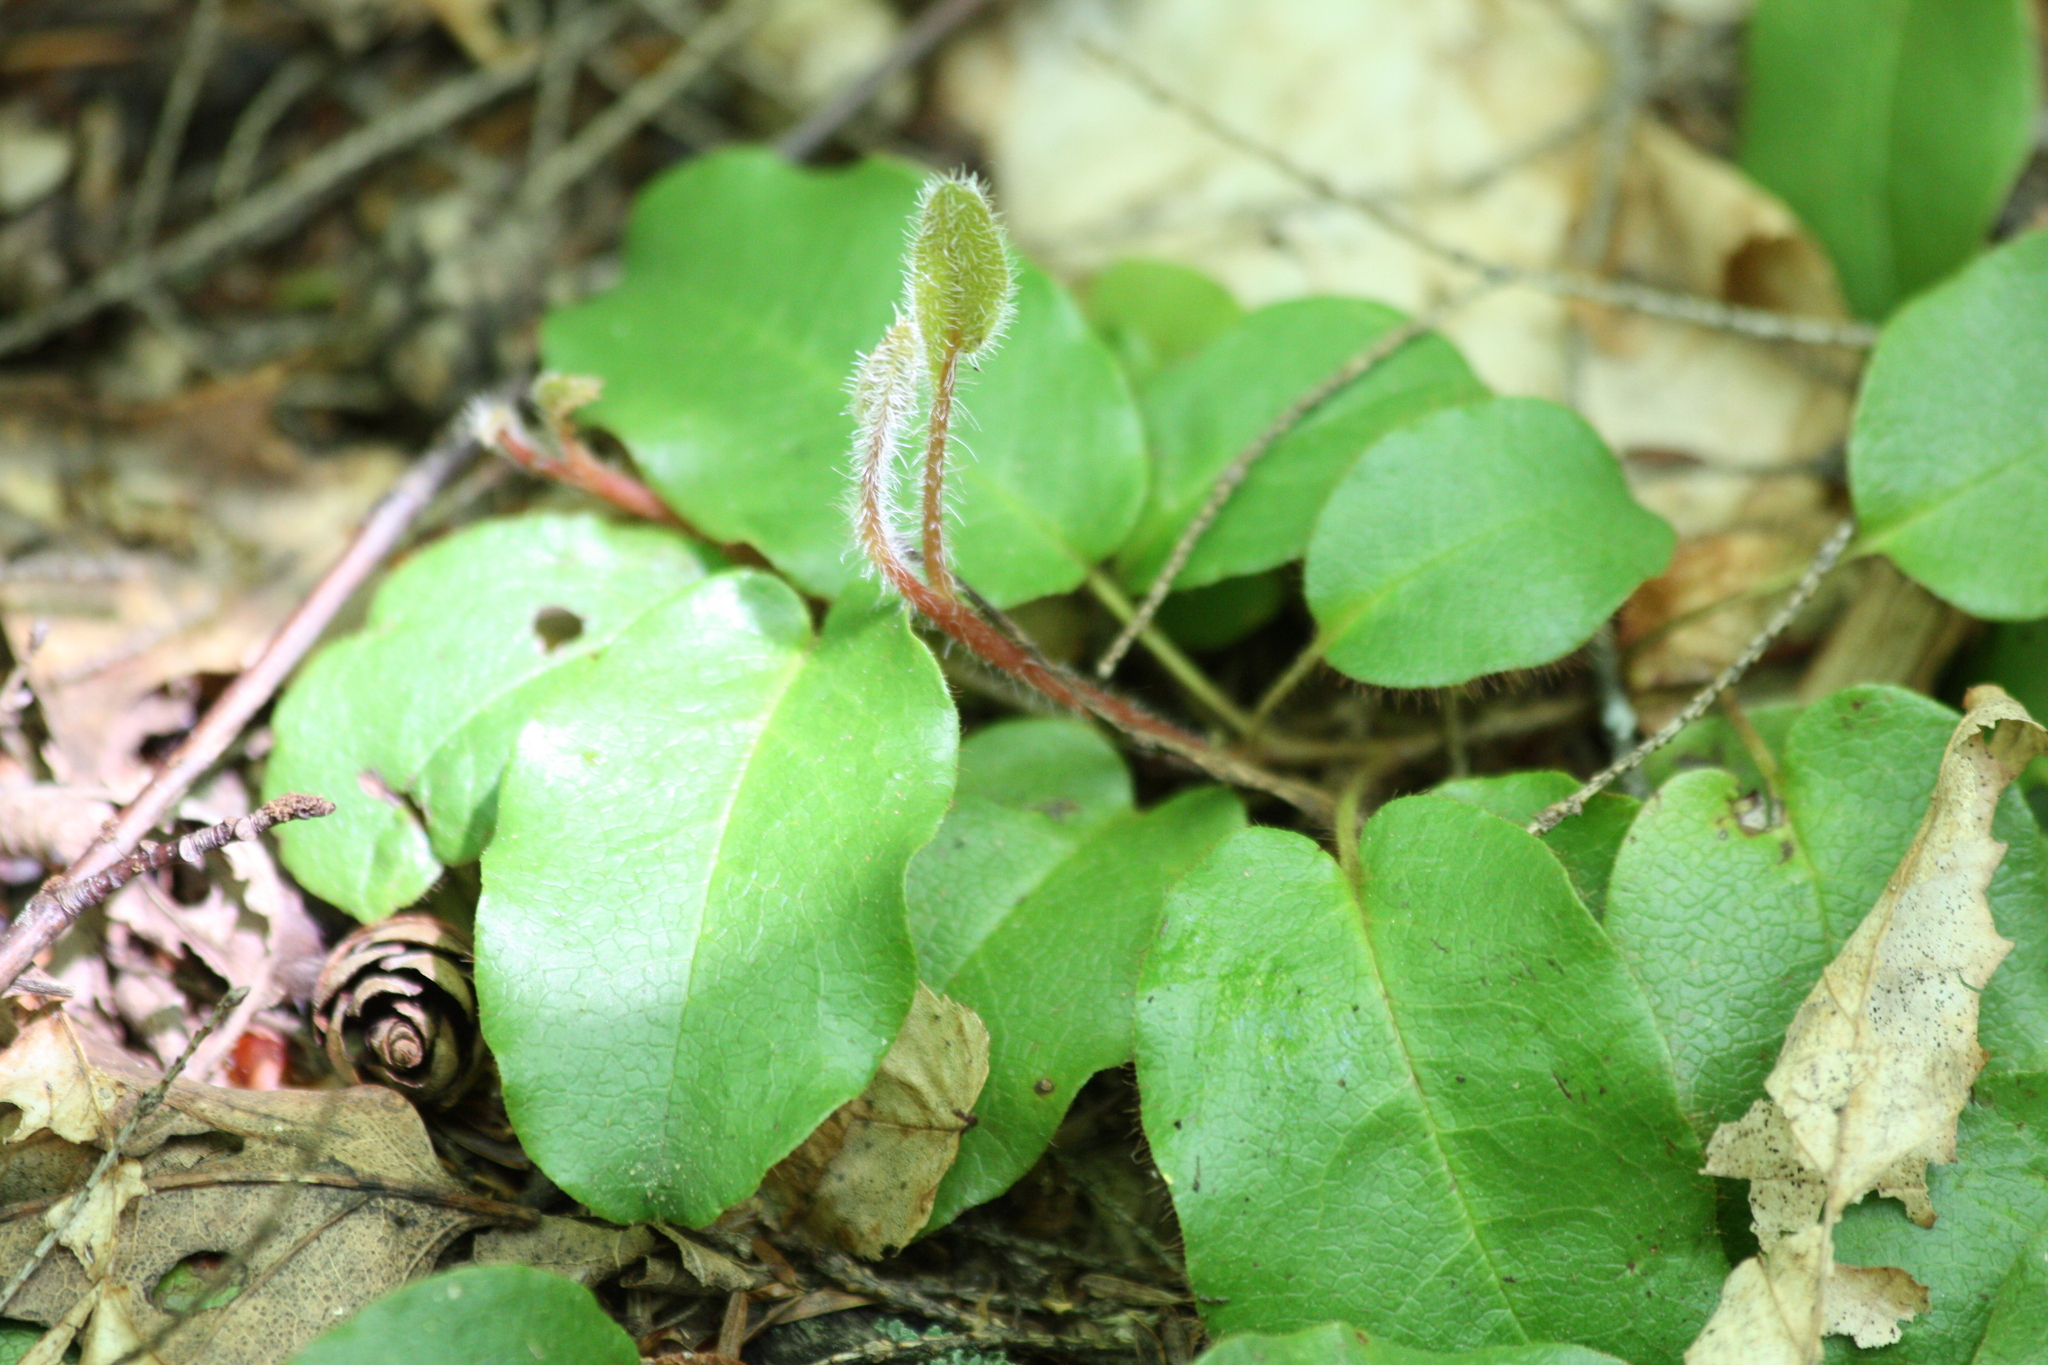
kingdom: Plantae
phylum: Tracheophyta
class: Magnoliopsida
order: Ericales
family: Ericaceae
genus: Epigaea
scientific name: Epigaea repens
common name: Gravelroot
